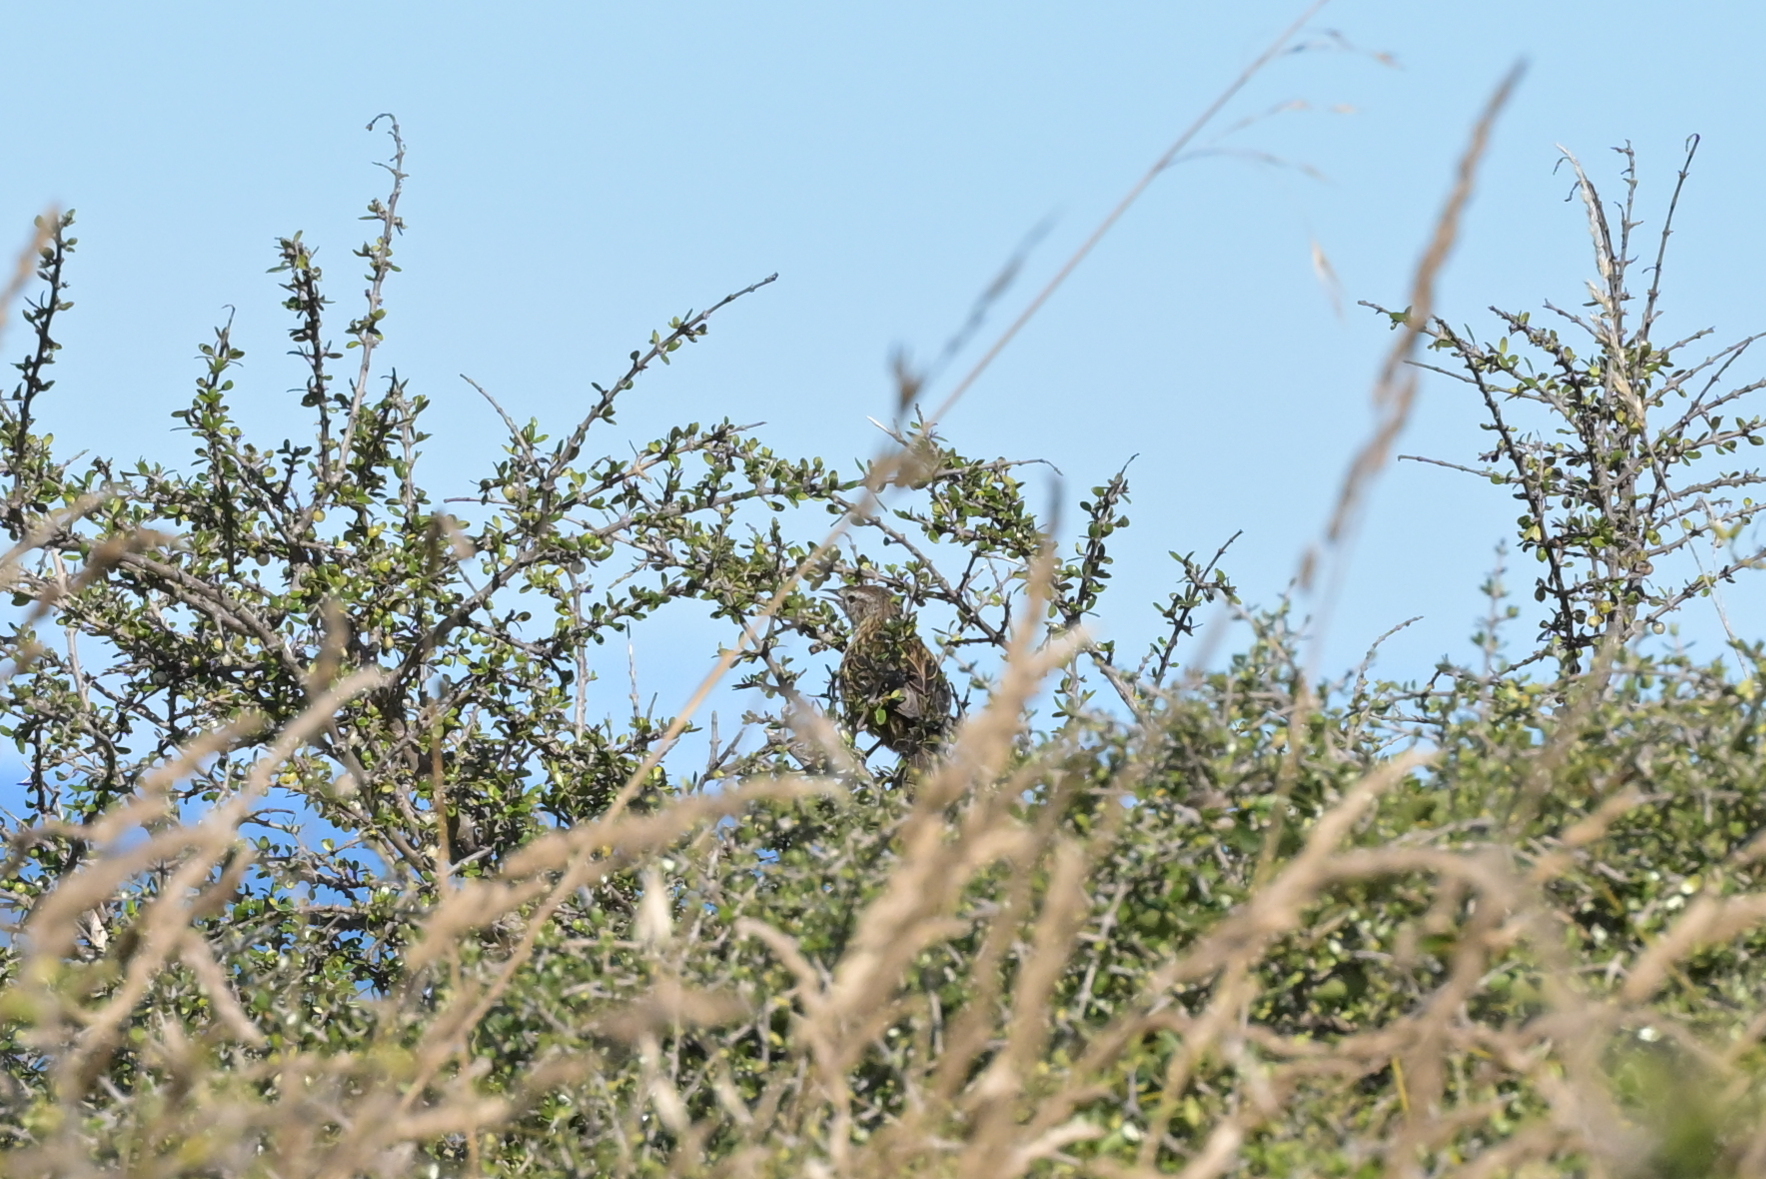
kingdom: Animalia
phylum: Chordata
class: Aves
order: Passeriformes
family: Locustellidae
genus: Megalurus
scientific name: Megalurus punctatus
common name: New zealand fernbird
